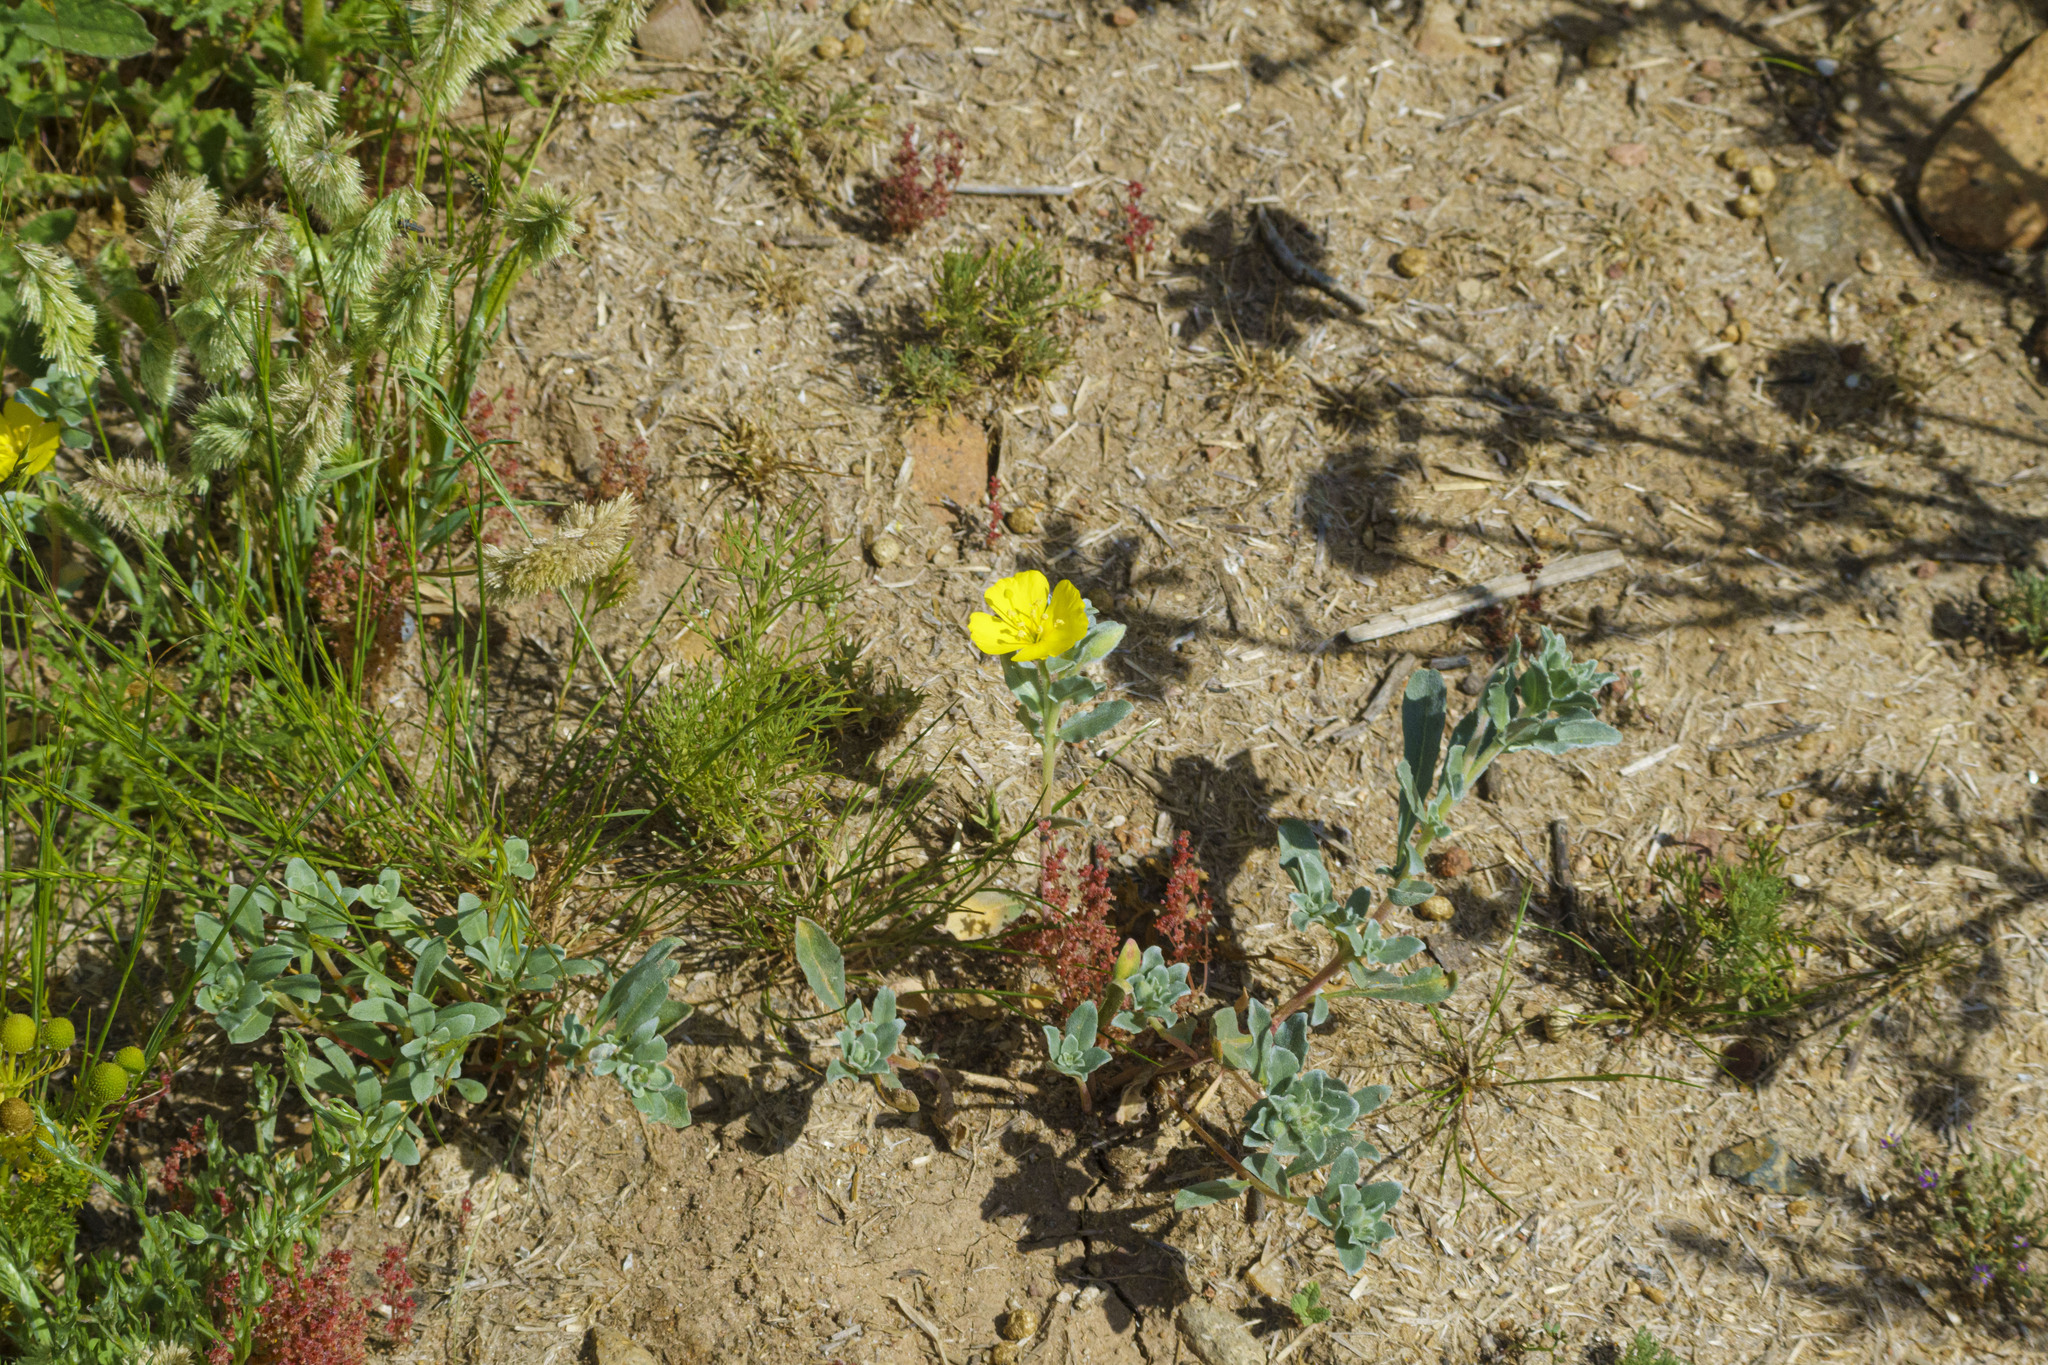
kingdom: Plantae
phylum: Tracheophyta
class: Magnoliopsida
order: Myrtales
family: Onagraceae
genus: Camissoniopsis
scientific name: Camissoniopsis cheiranthifolia
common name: Beach suncup
